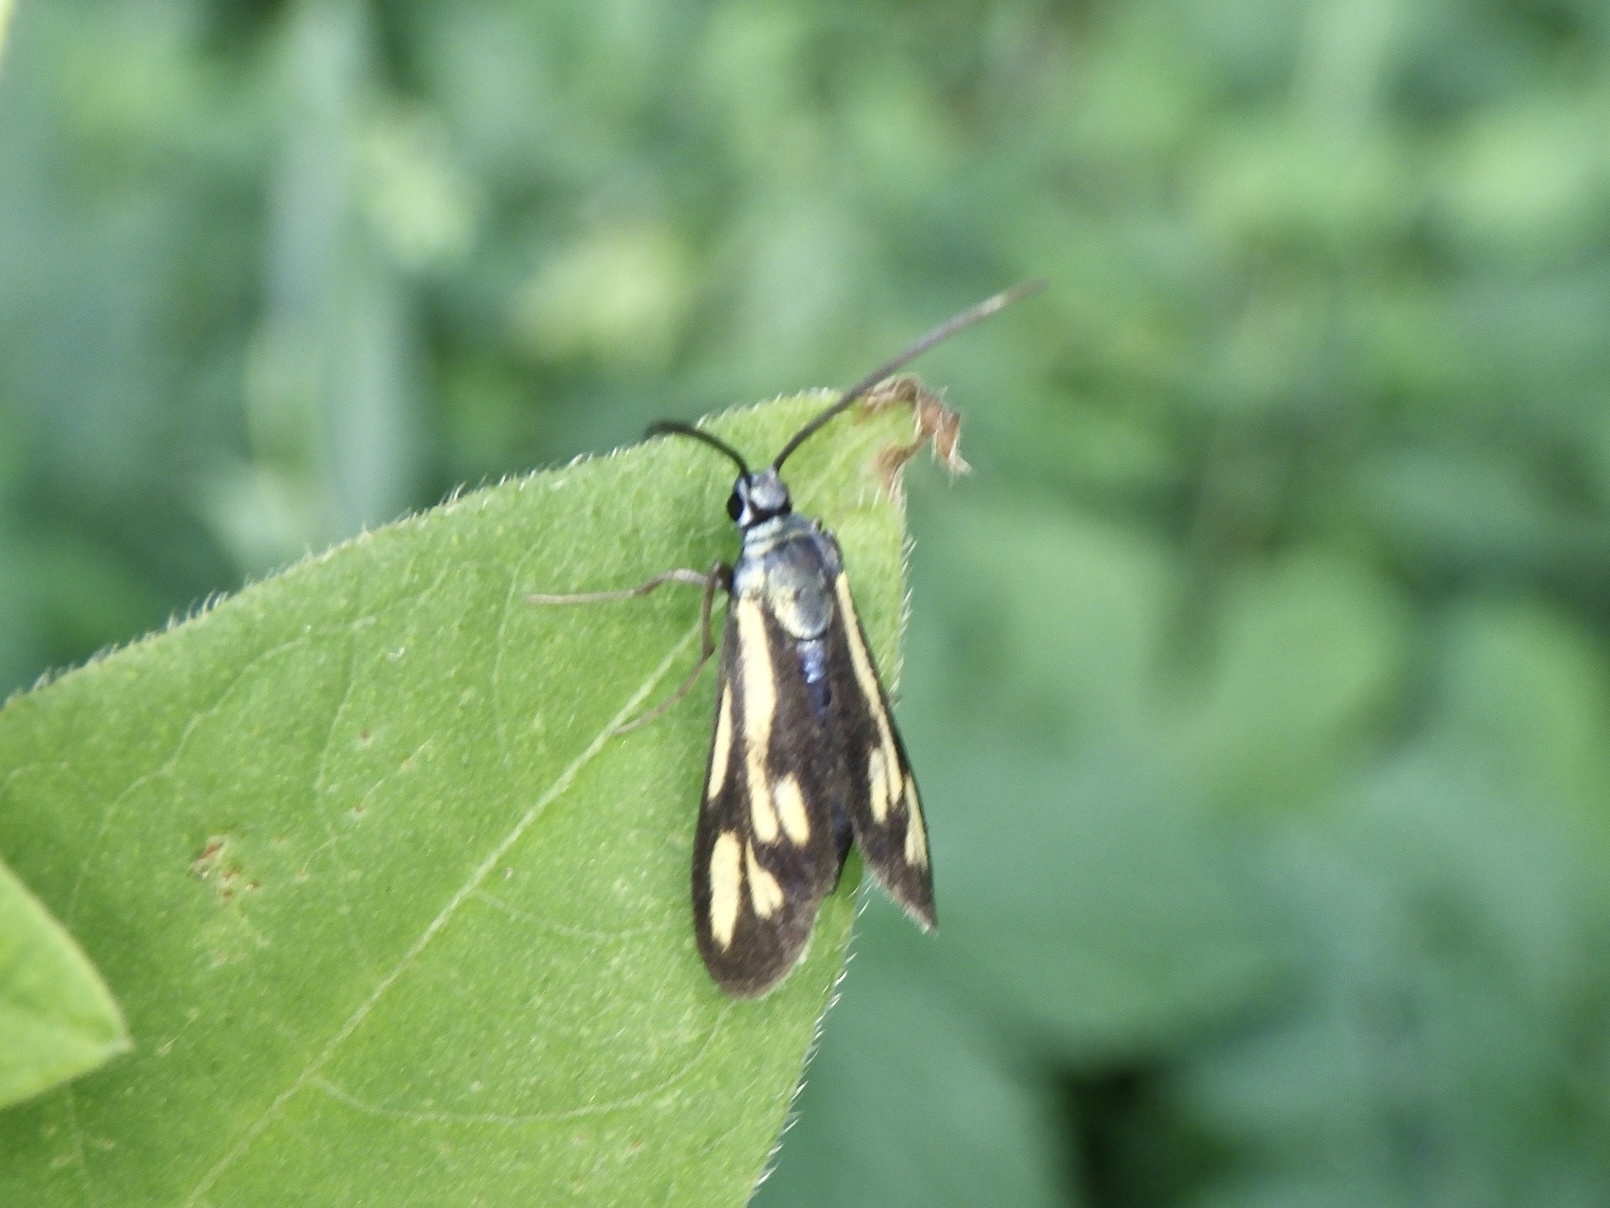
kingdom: Animalia
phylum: Arthropoda
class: Insecta
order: Lepidoptera
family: Zygaenidae
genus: Artona
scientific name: Artona
